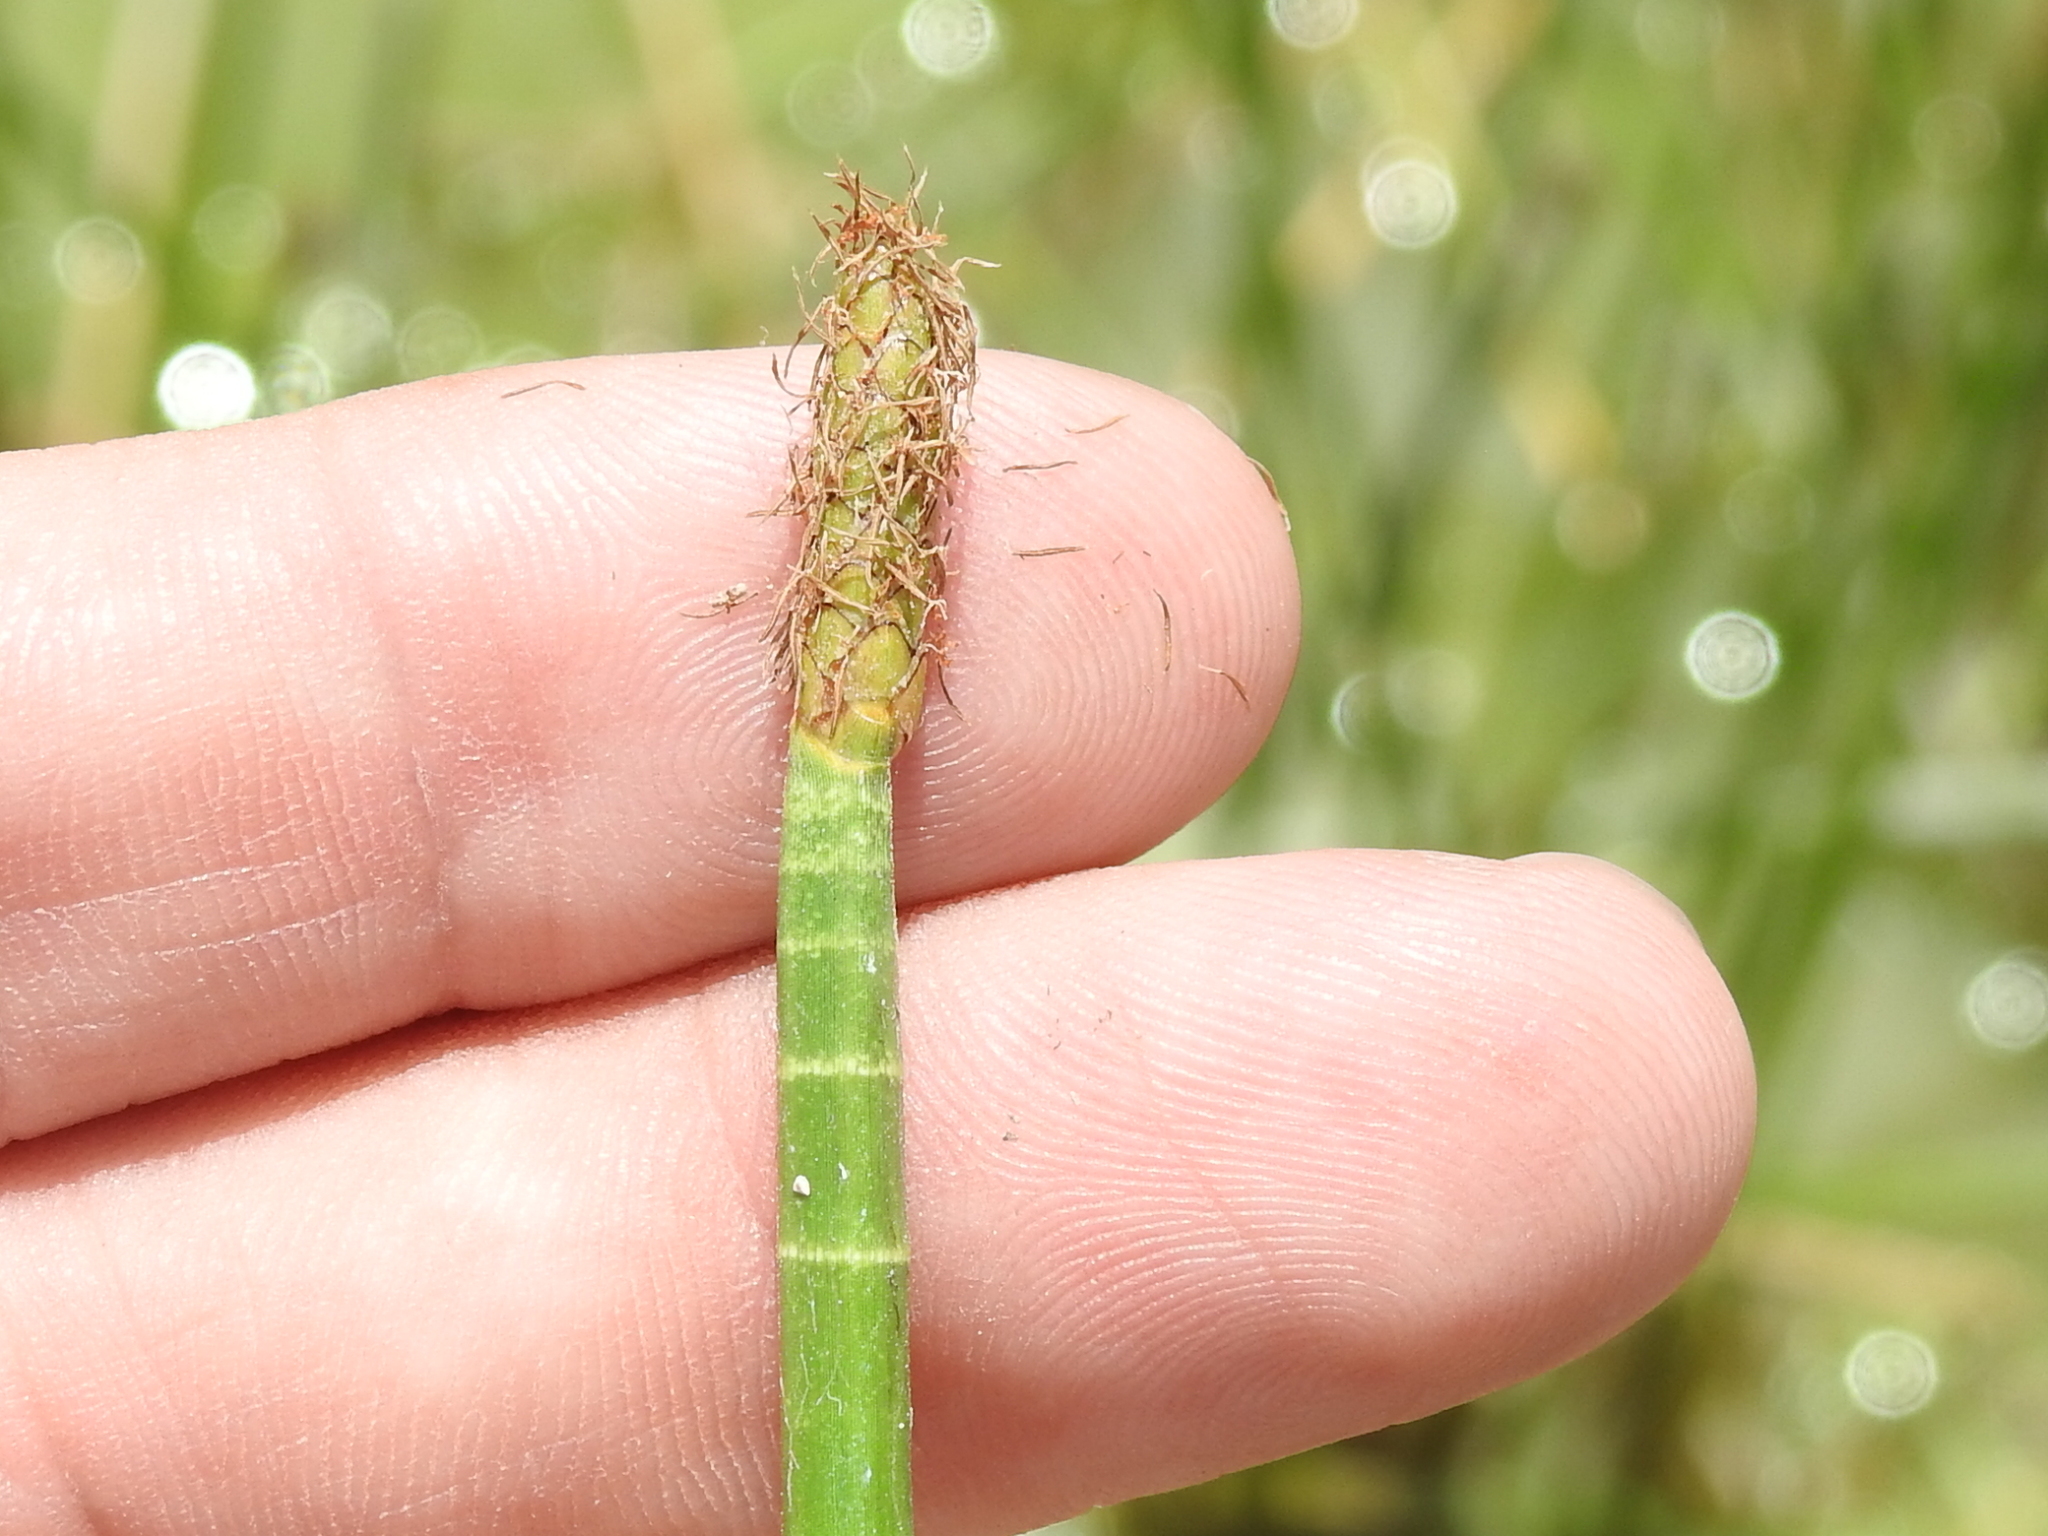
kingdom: Plantae
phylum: Tracheophyta
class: Liliopsida
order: Poales
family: Cyperaceae
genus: Eleocharis
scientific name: Eleocharis interstincta
